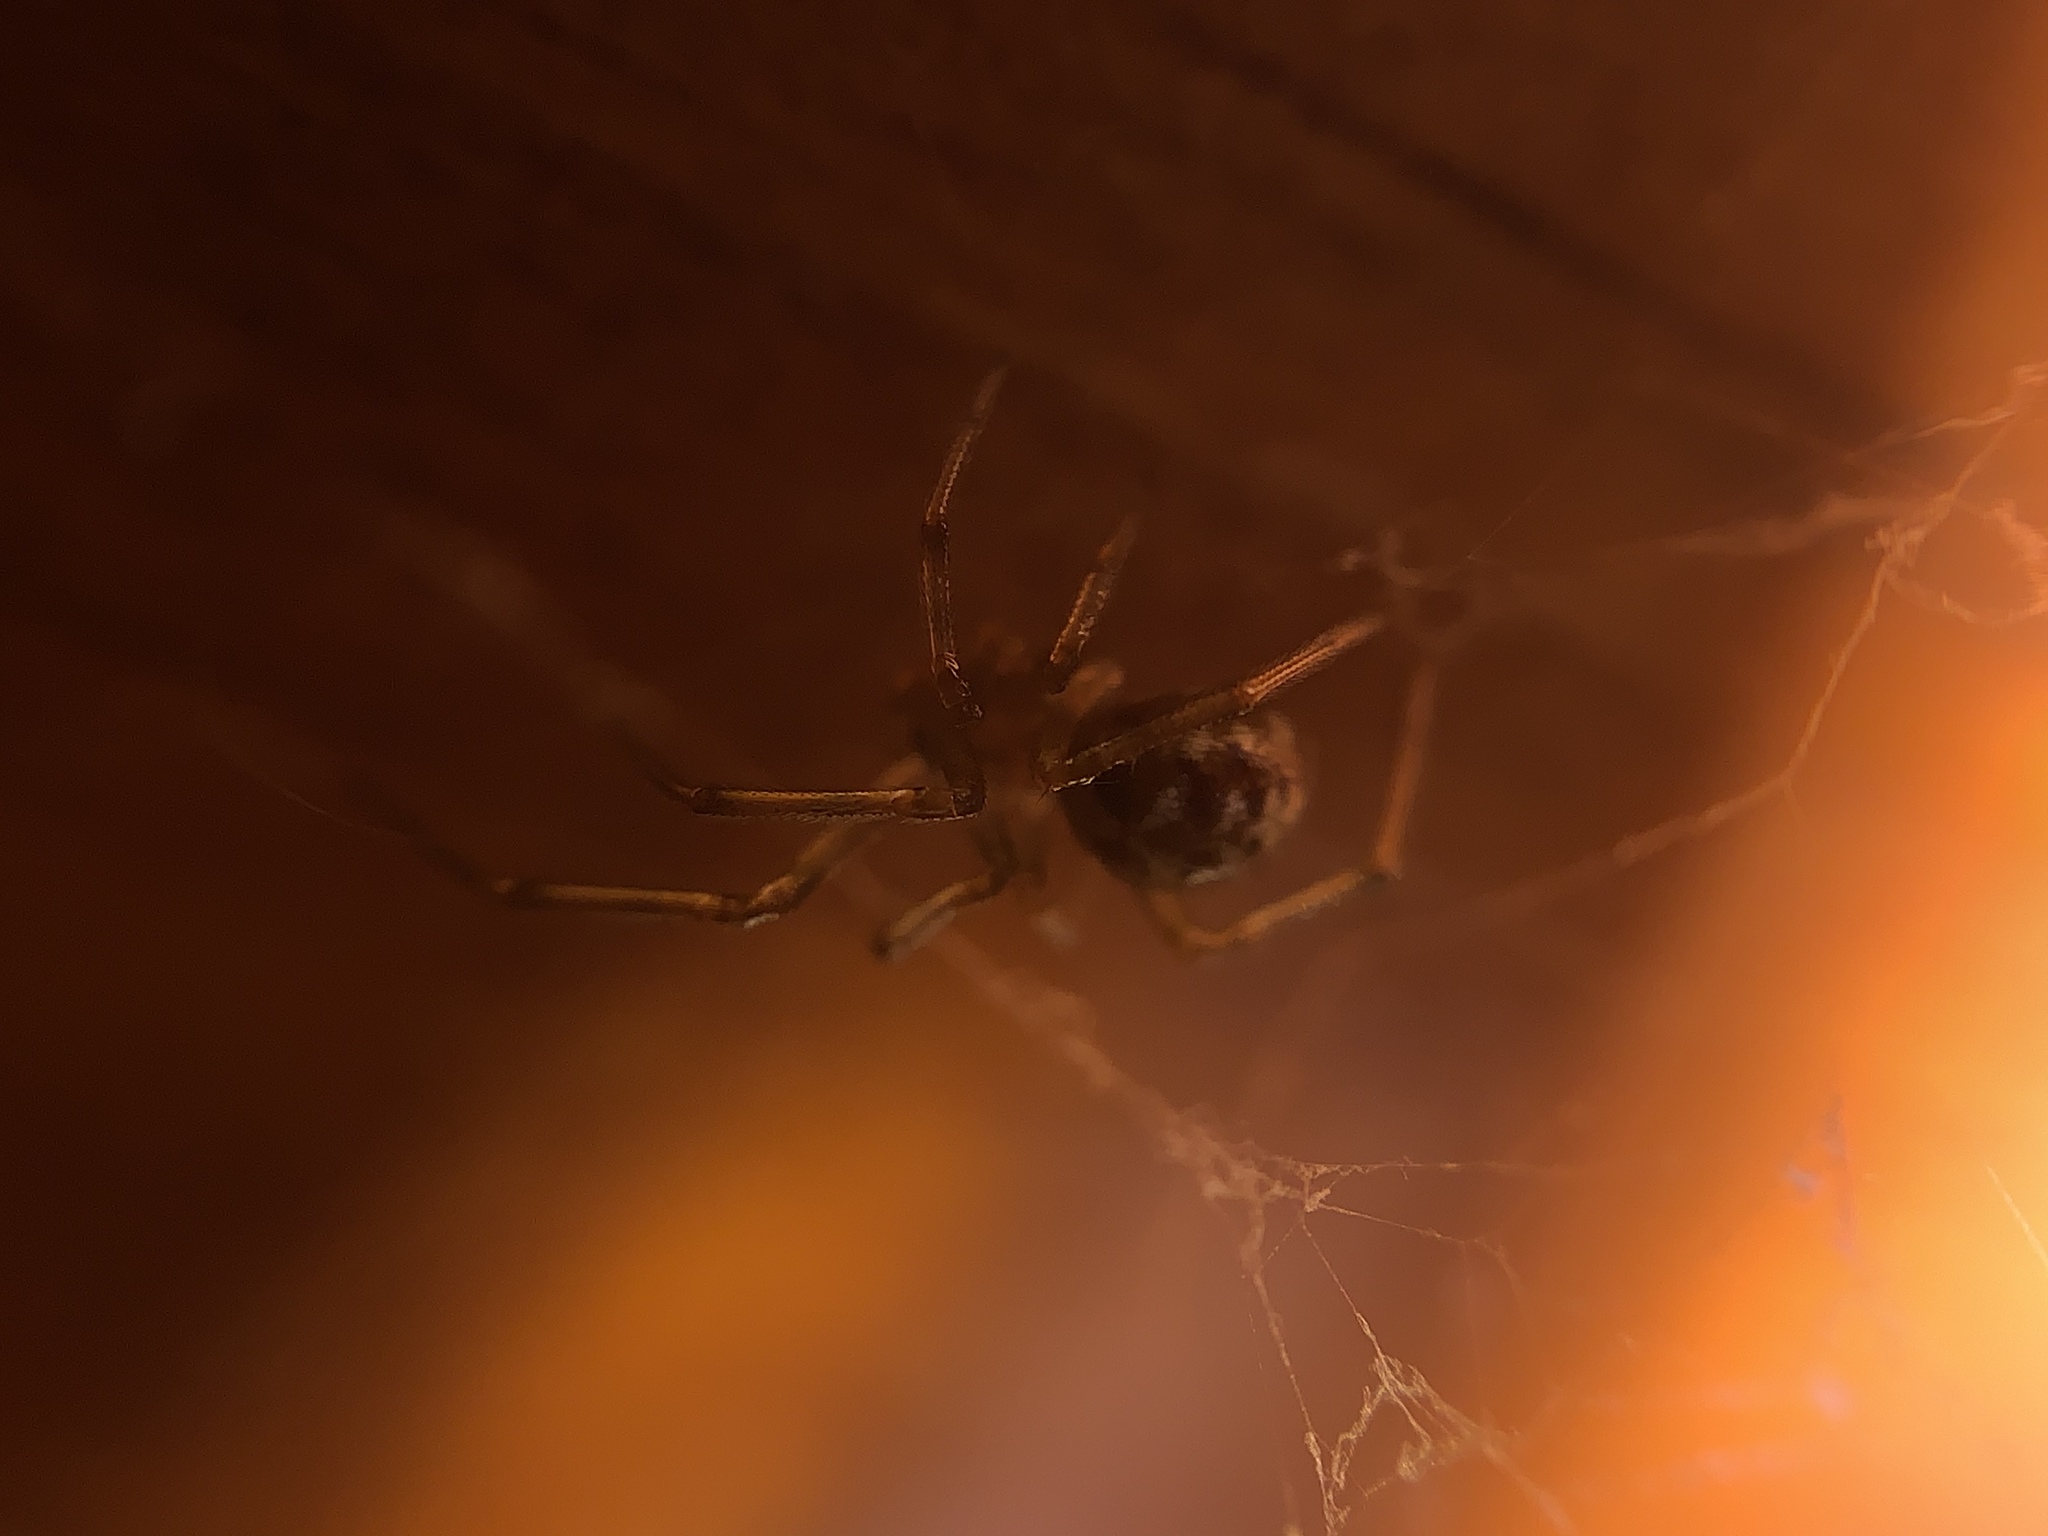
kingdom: Animalia
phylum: Arthropoda
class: Arachnida
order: Araneae
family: Theridiidae
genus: Steatoda
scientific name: Steatoda triangulosa
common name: Triangulate bud spider
